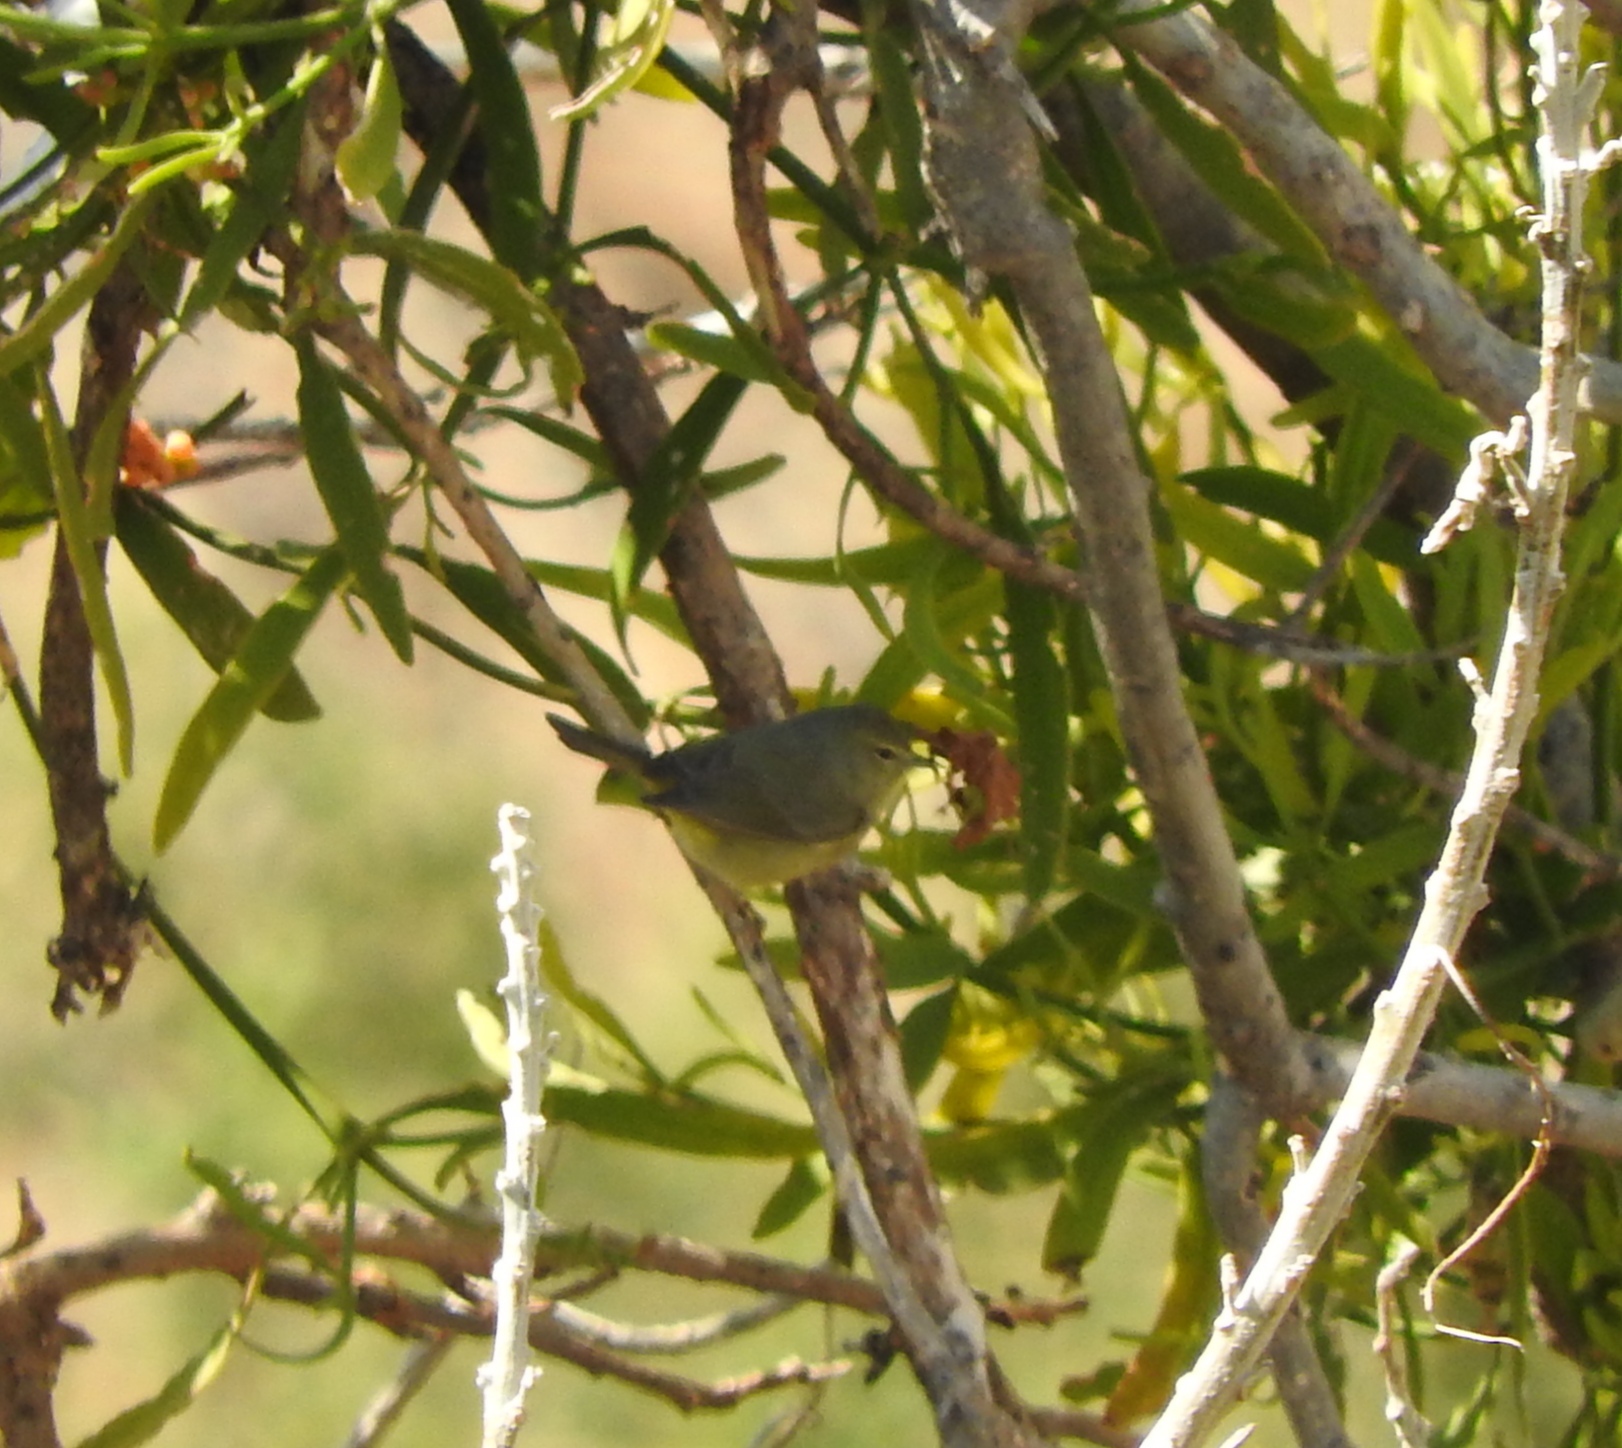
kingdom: Animalia
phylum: Chordata
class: Aves
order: Passeriformes
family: Parulidae
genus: Leiothlypis
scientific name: Leiothlypis celata
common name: Orange-crowned warbler
